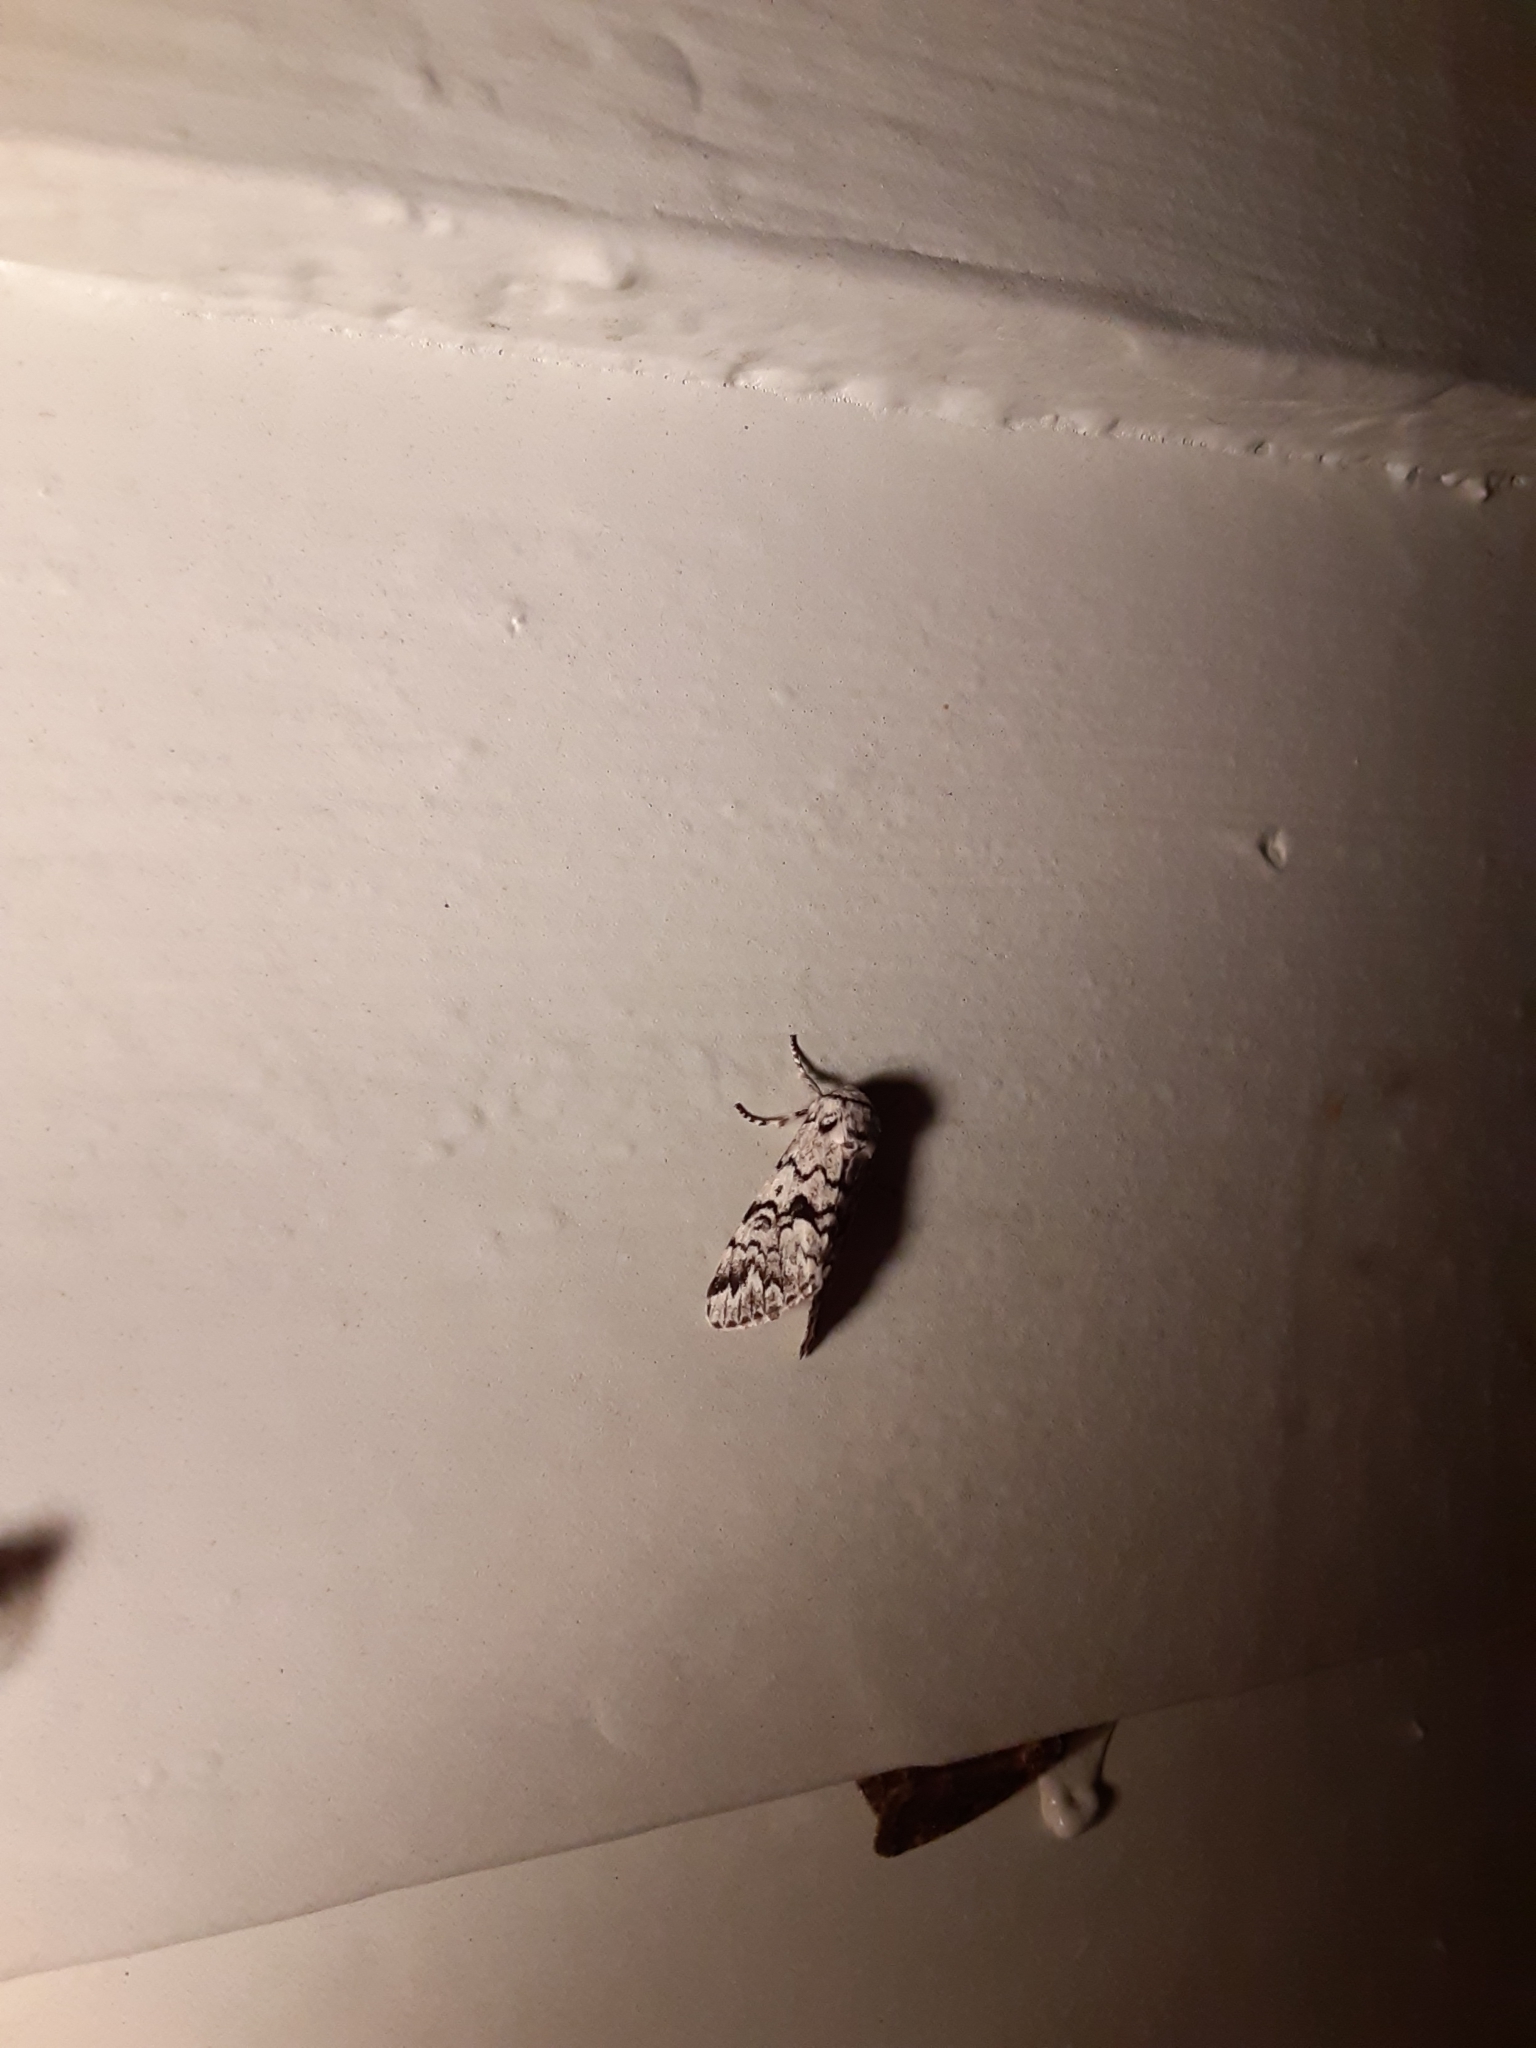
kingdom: Animalia
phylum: Arthropoda
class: Insecta
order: Lepidoptera
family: Noctuidae
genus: Panthea
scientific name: Panthea acronyctoides
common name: Black zigzag moth
